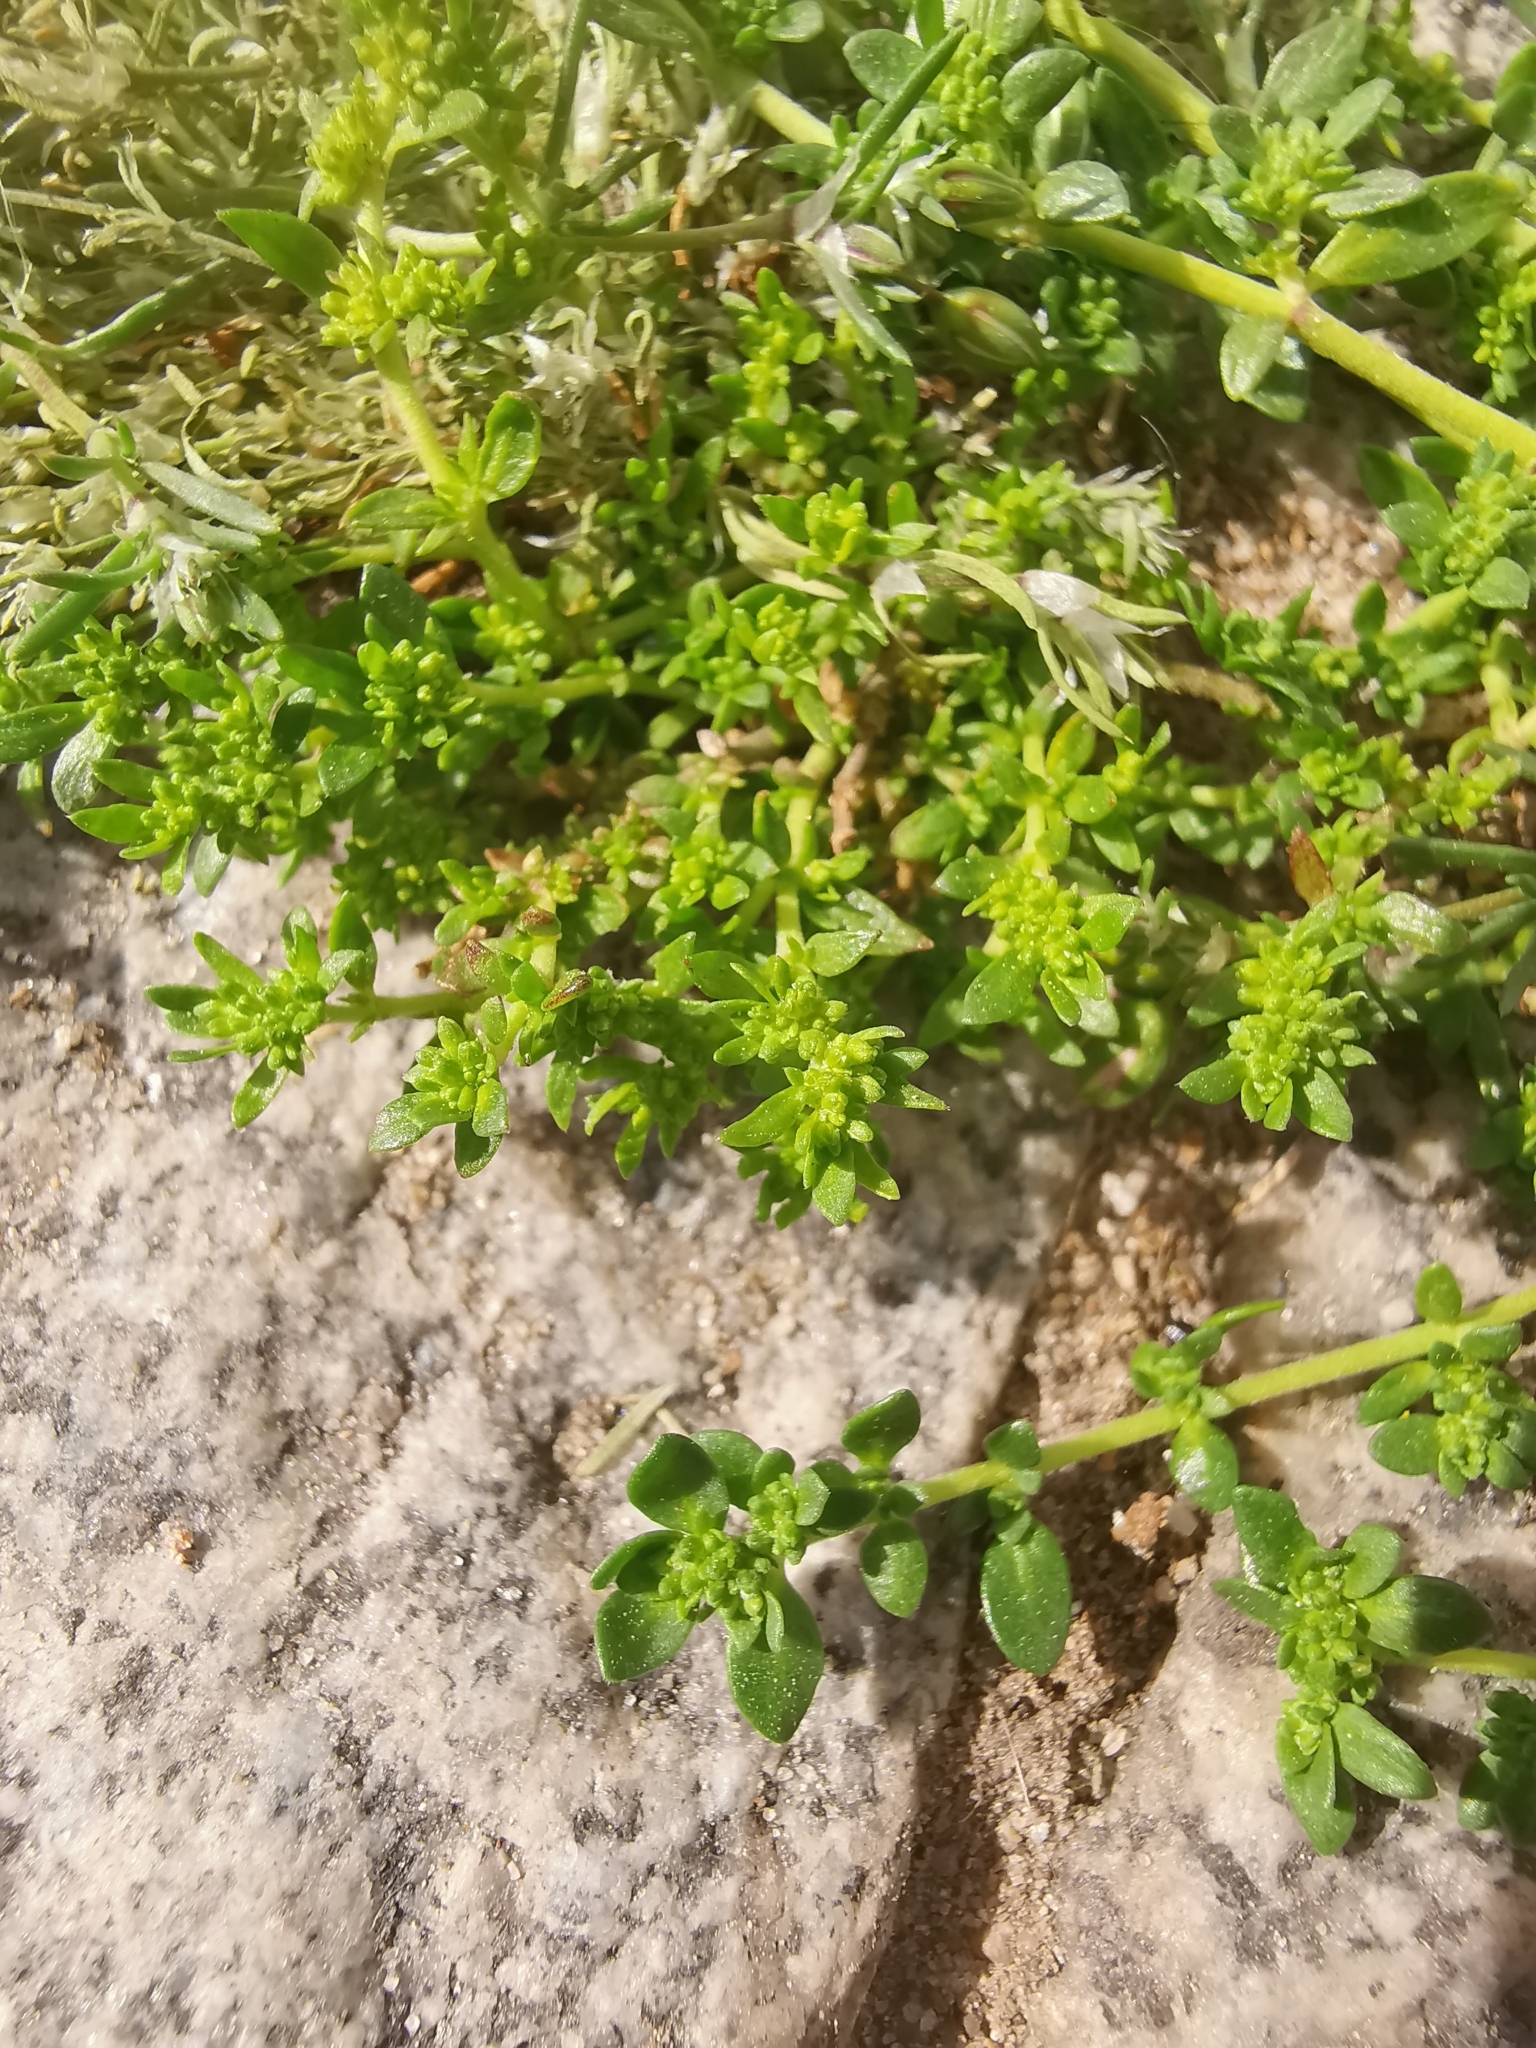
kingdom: Plantae
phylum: Tracheophyta
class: Magnoliopsida
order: Caryophyllales
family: Caryophyllaceae
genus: Herniaria
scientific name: Herniaria glabra
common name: Smooth rupturewort
